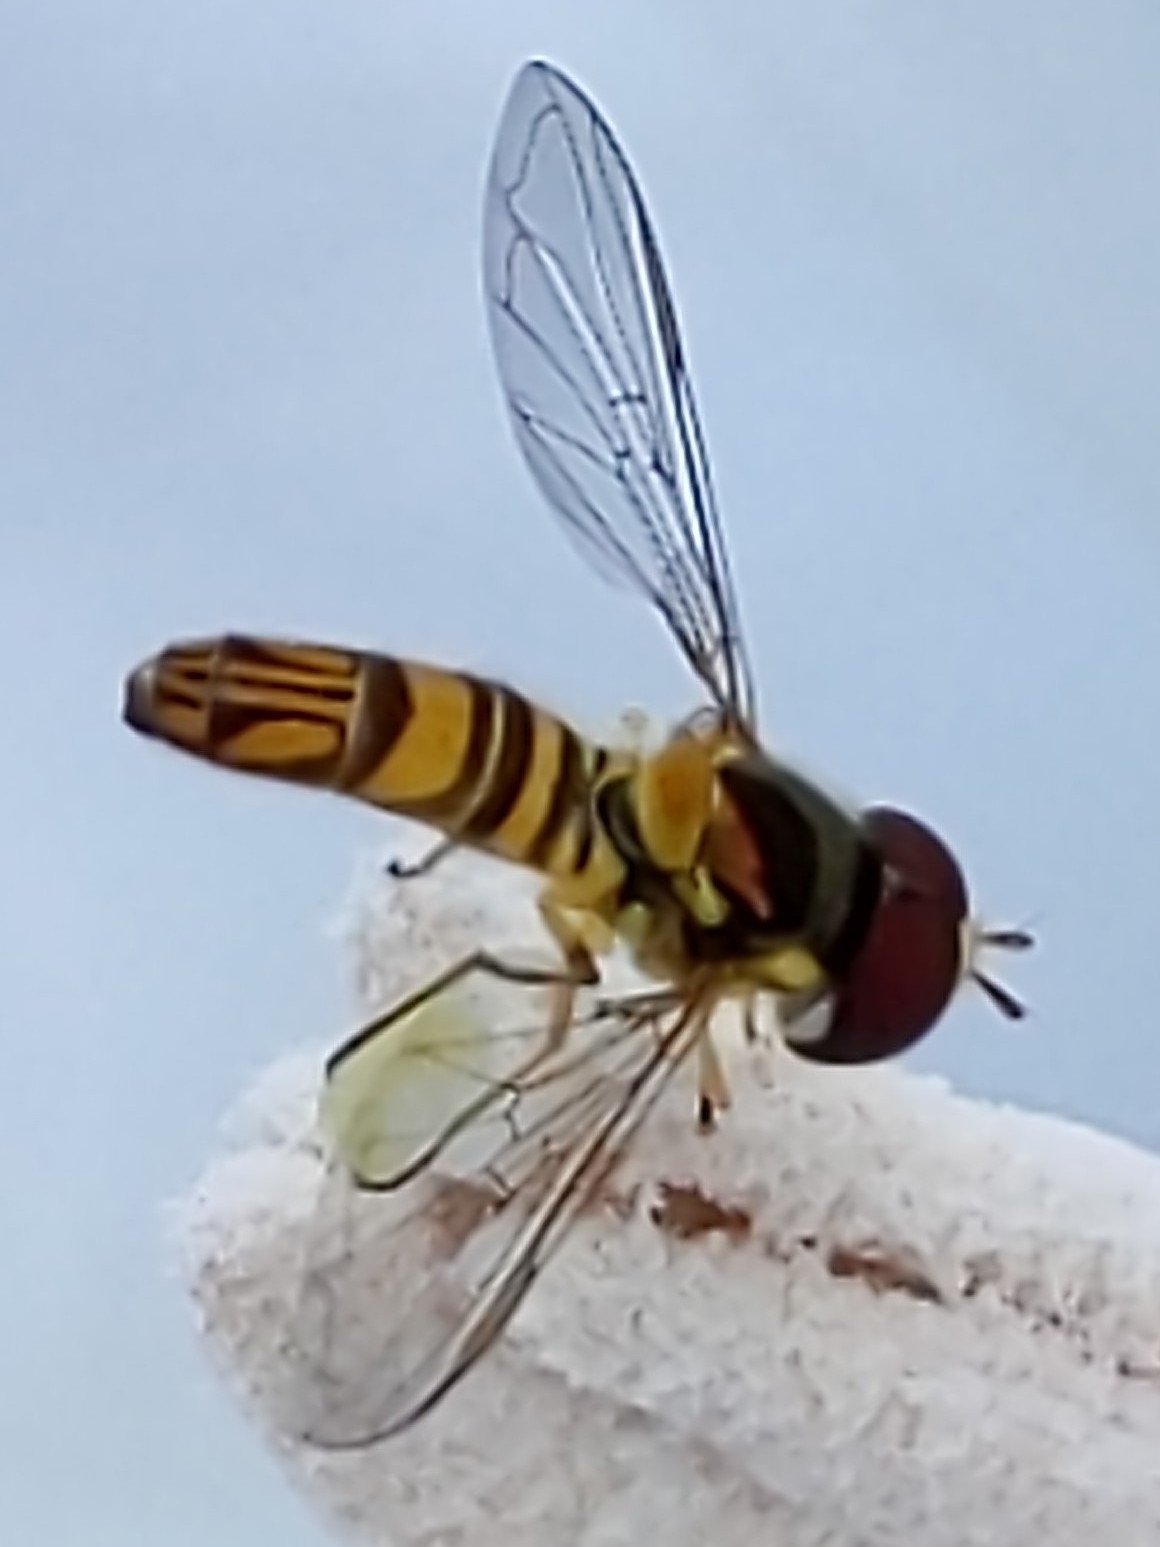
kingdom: Animalia
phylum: Arthropoda
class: Insecta
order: Diptera
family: Syrphidae
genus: Allograpta
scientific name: Allograpta obliqua
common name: Common oblique syrphid
